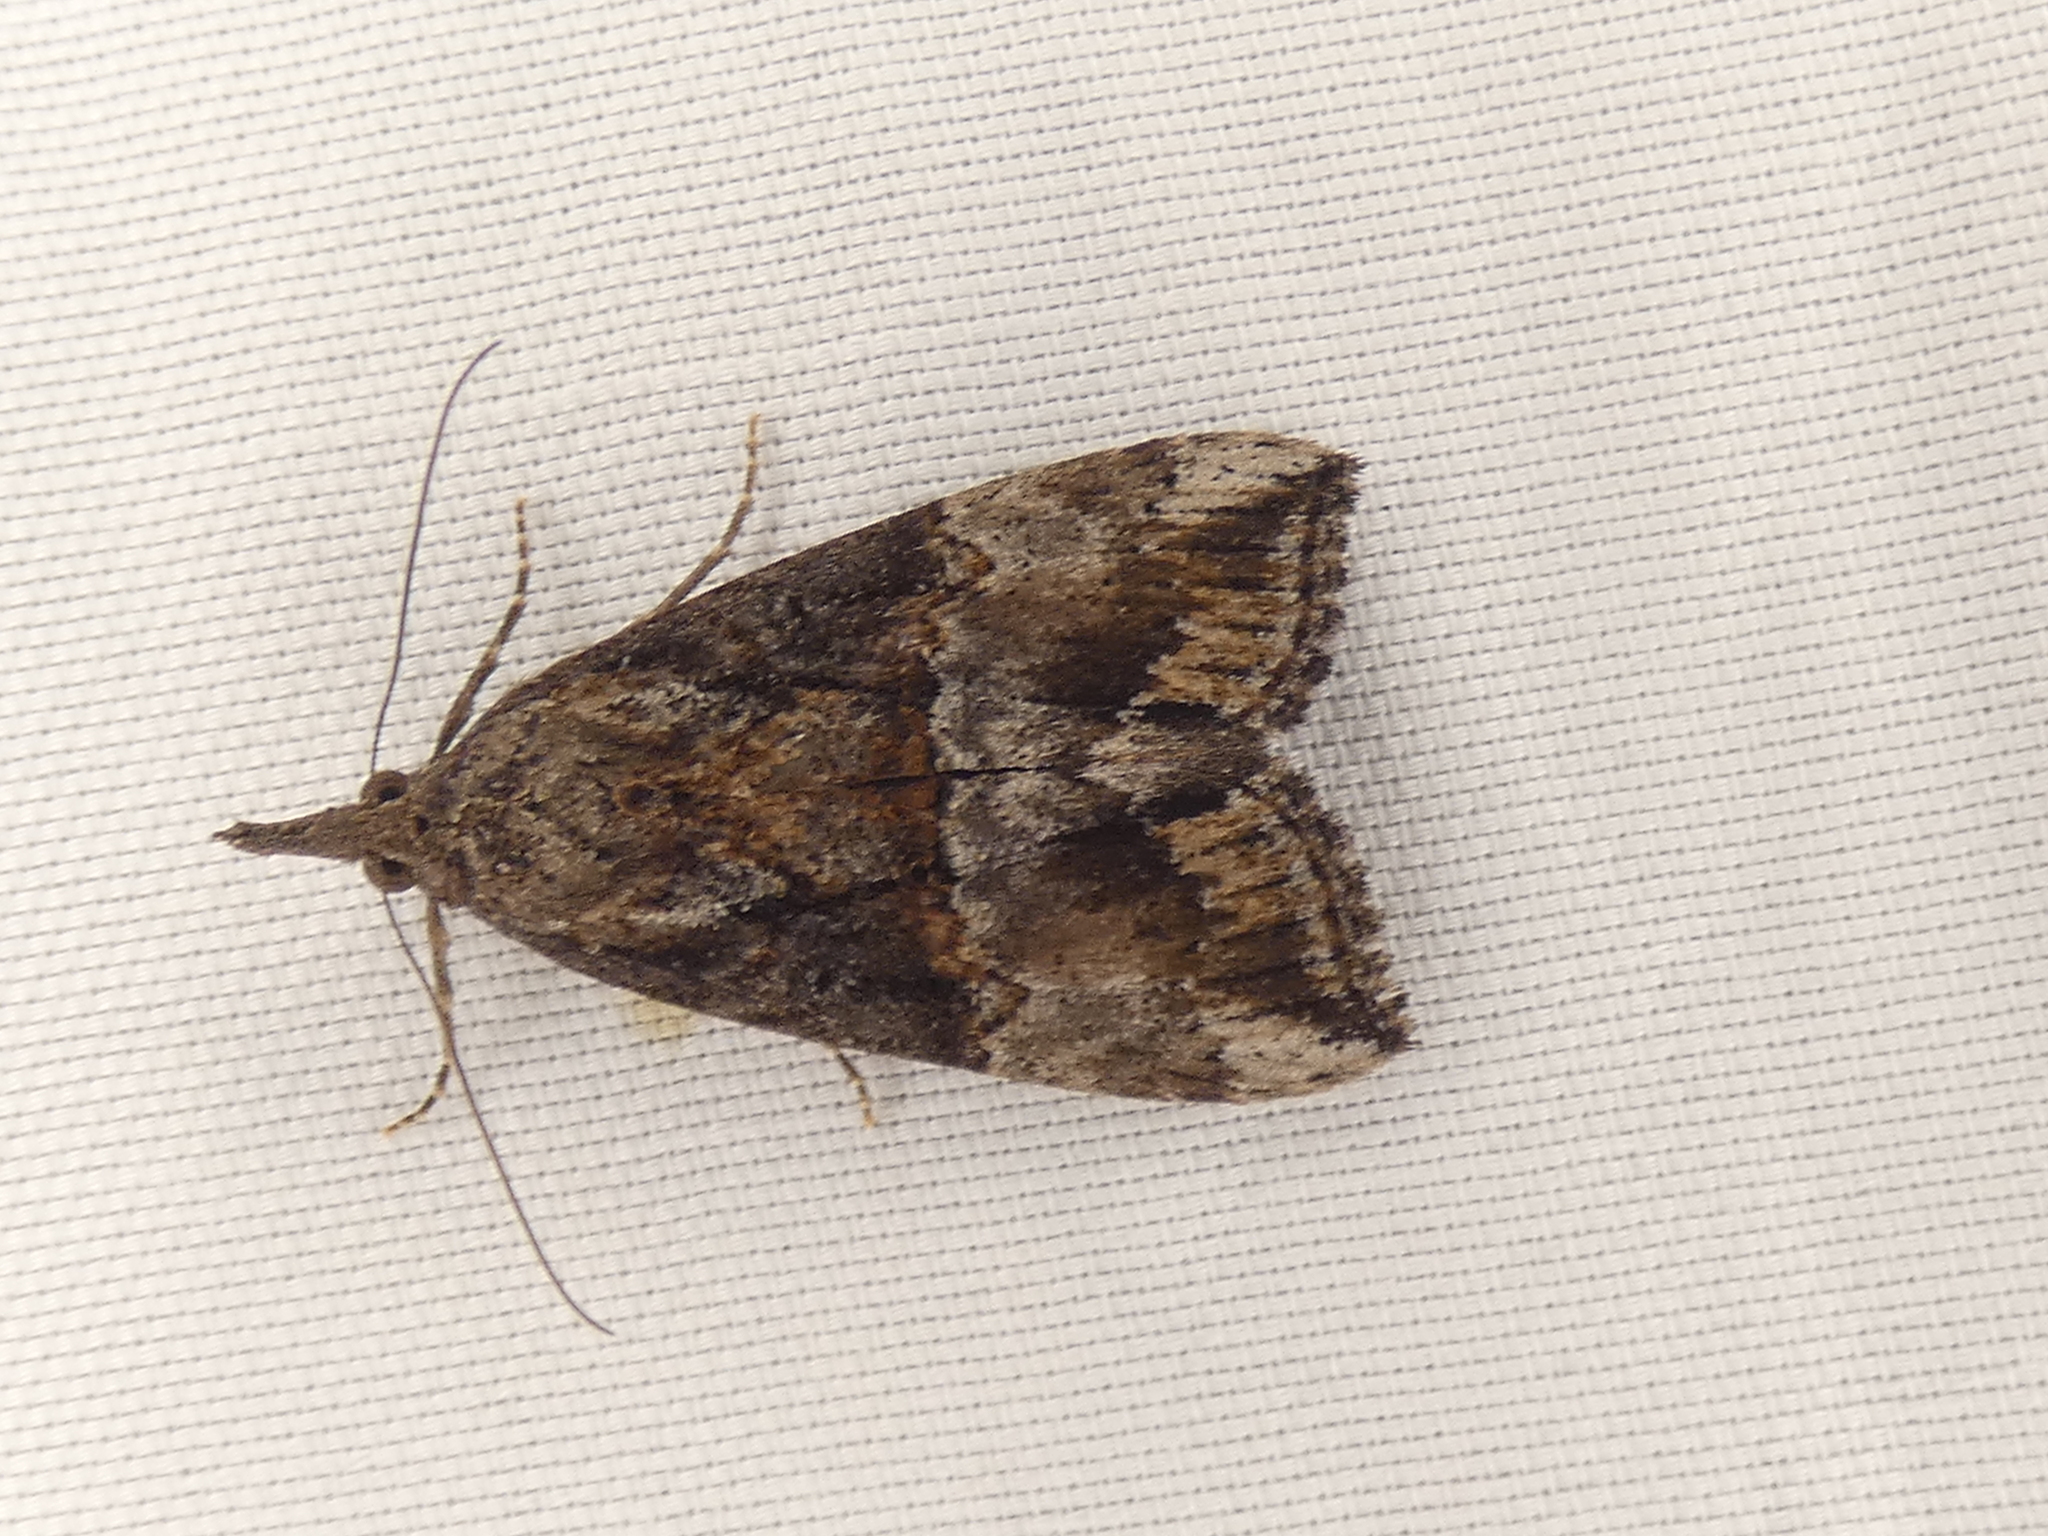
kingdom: Animalia
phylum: Arthropoda
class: Insecta
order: Lepidoptera
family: Erebidae
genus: Hypena
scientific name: Hypena scabra
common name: Green cloverworm
